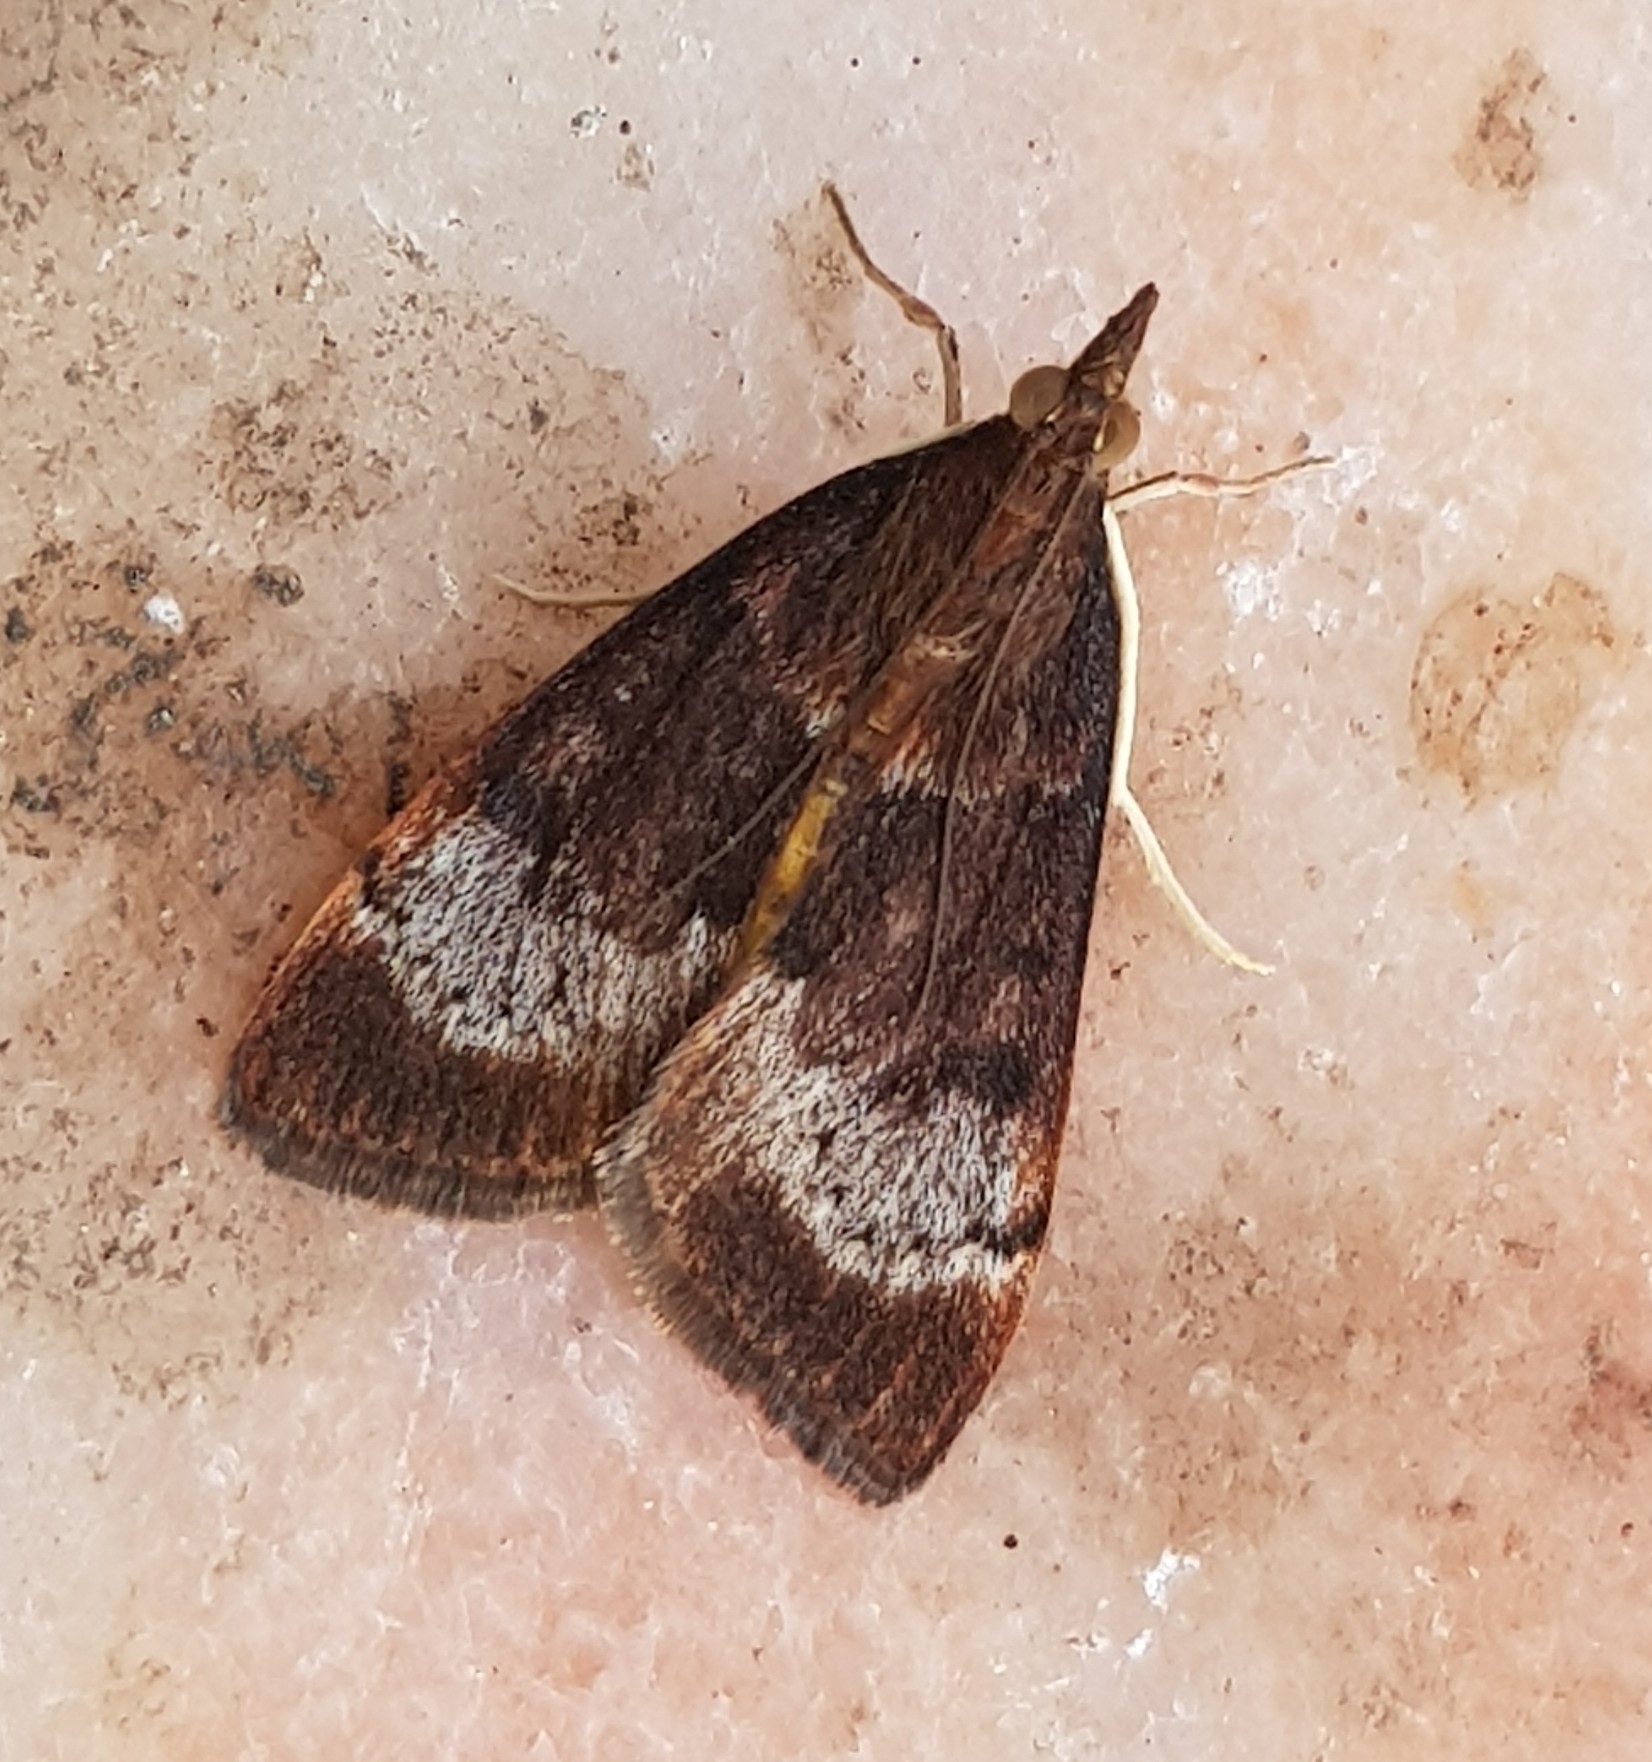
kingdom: Animalia
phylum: Arthropoda
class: Insecta
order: Lepidoptera
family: Crambidae
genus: Uresiphita
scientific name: Uresiphita gilvata
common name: Yellow-underwing pearl
